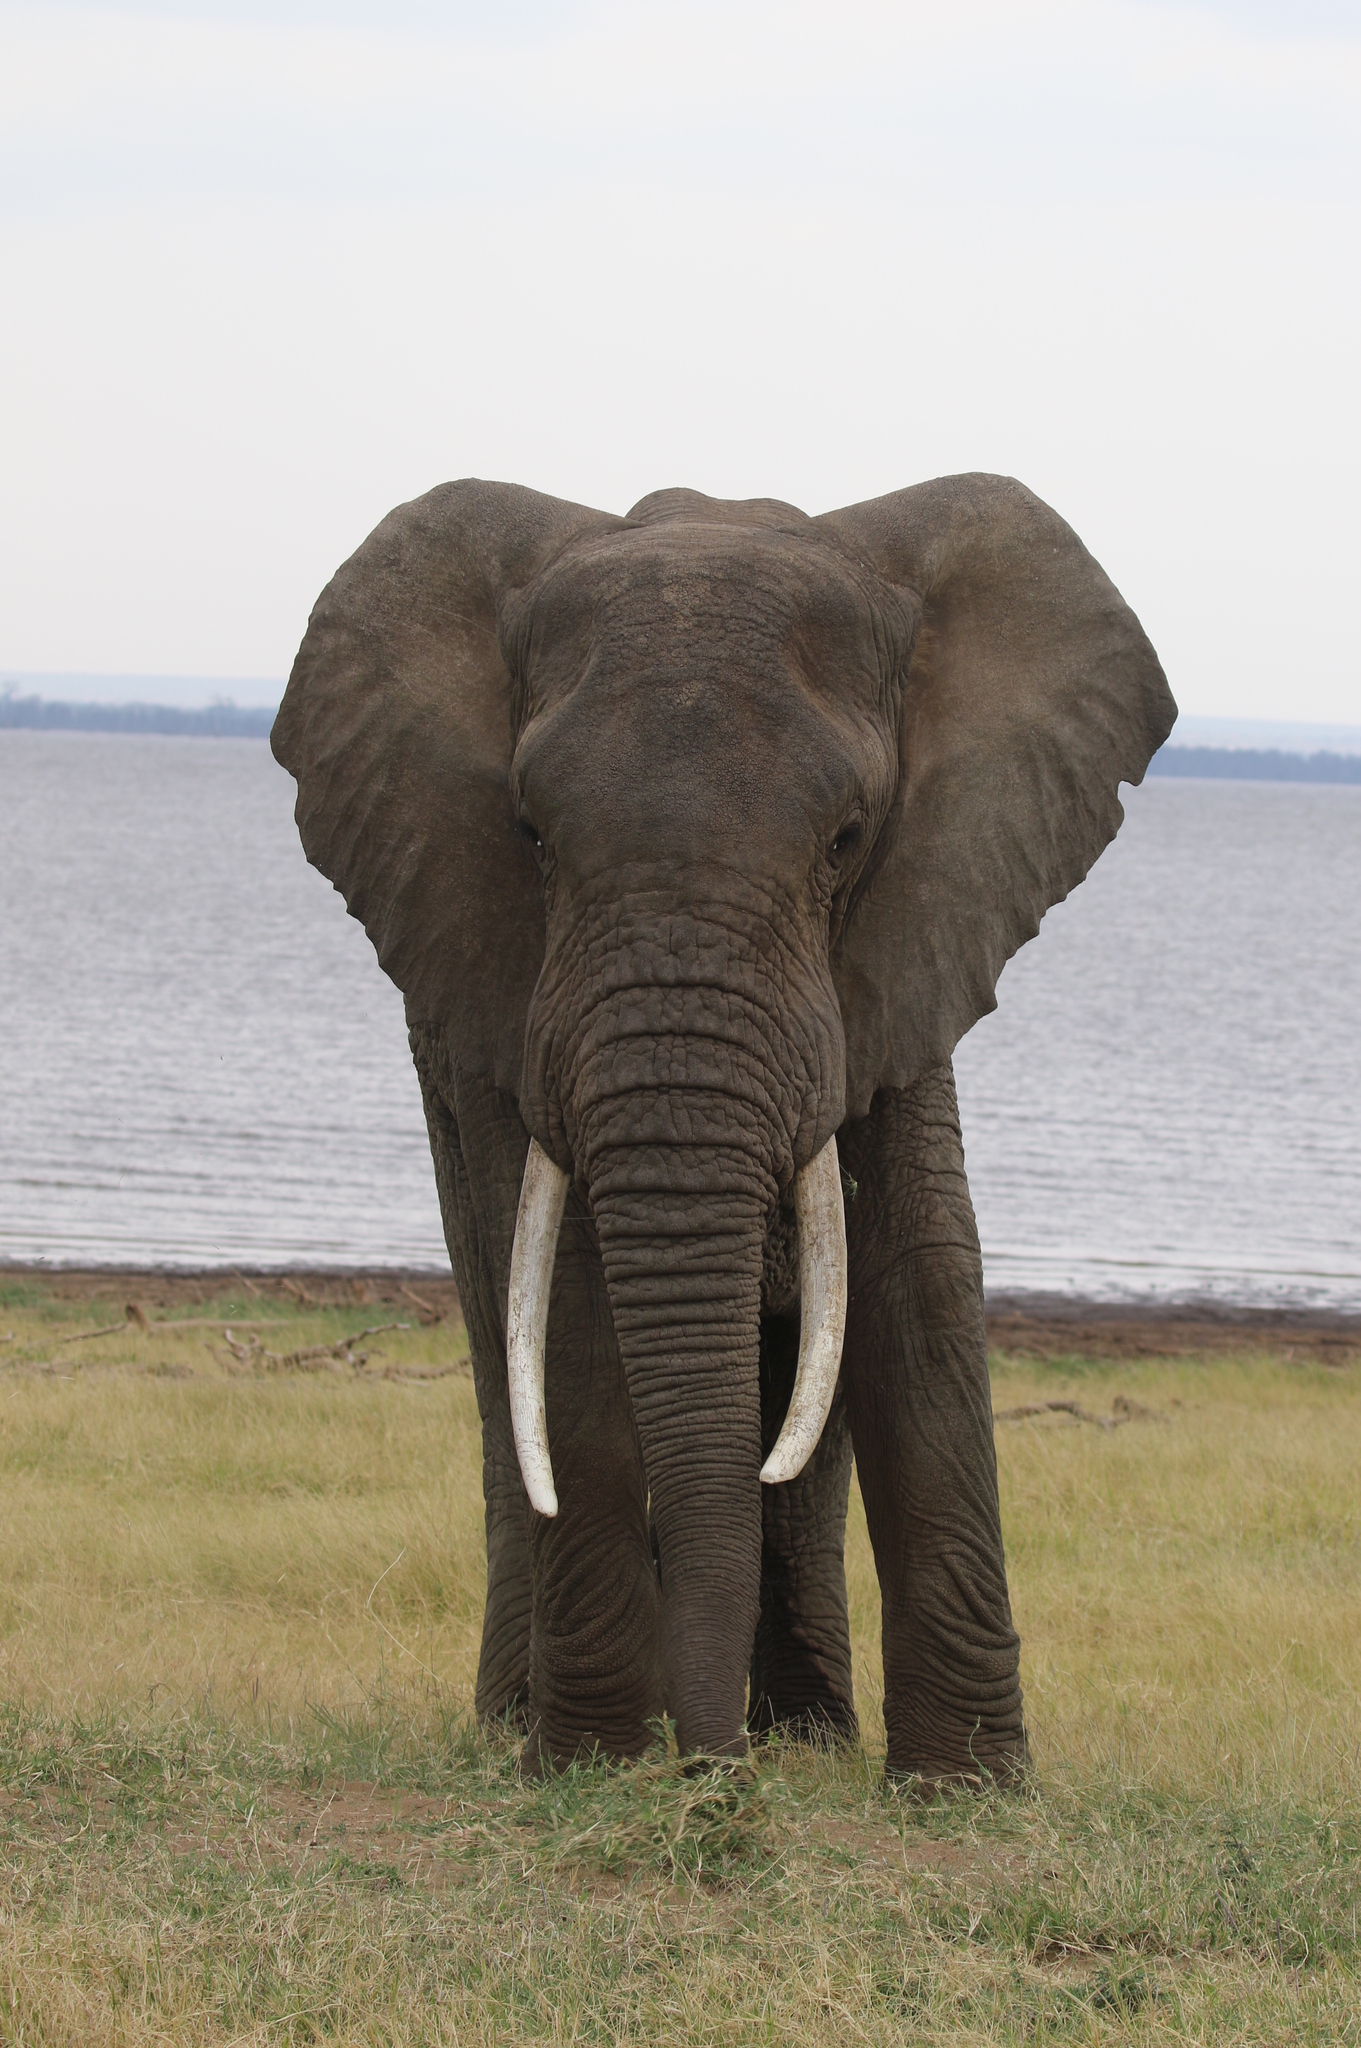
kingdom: Animalia
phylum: Chordata
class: Mammalia
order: Proboscidea
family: Elephantidae
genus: Loxodonta
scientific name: Loxodonta africana
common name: African elephant
